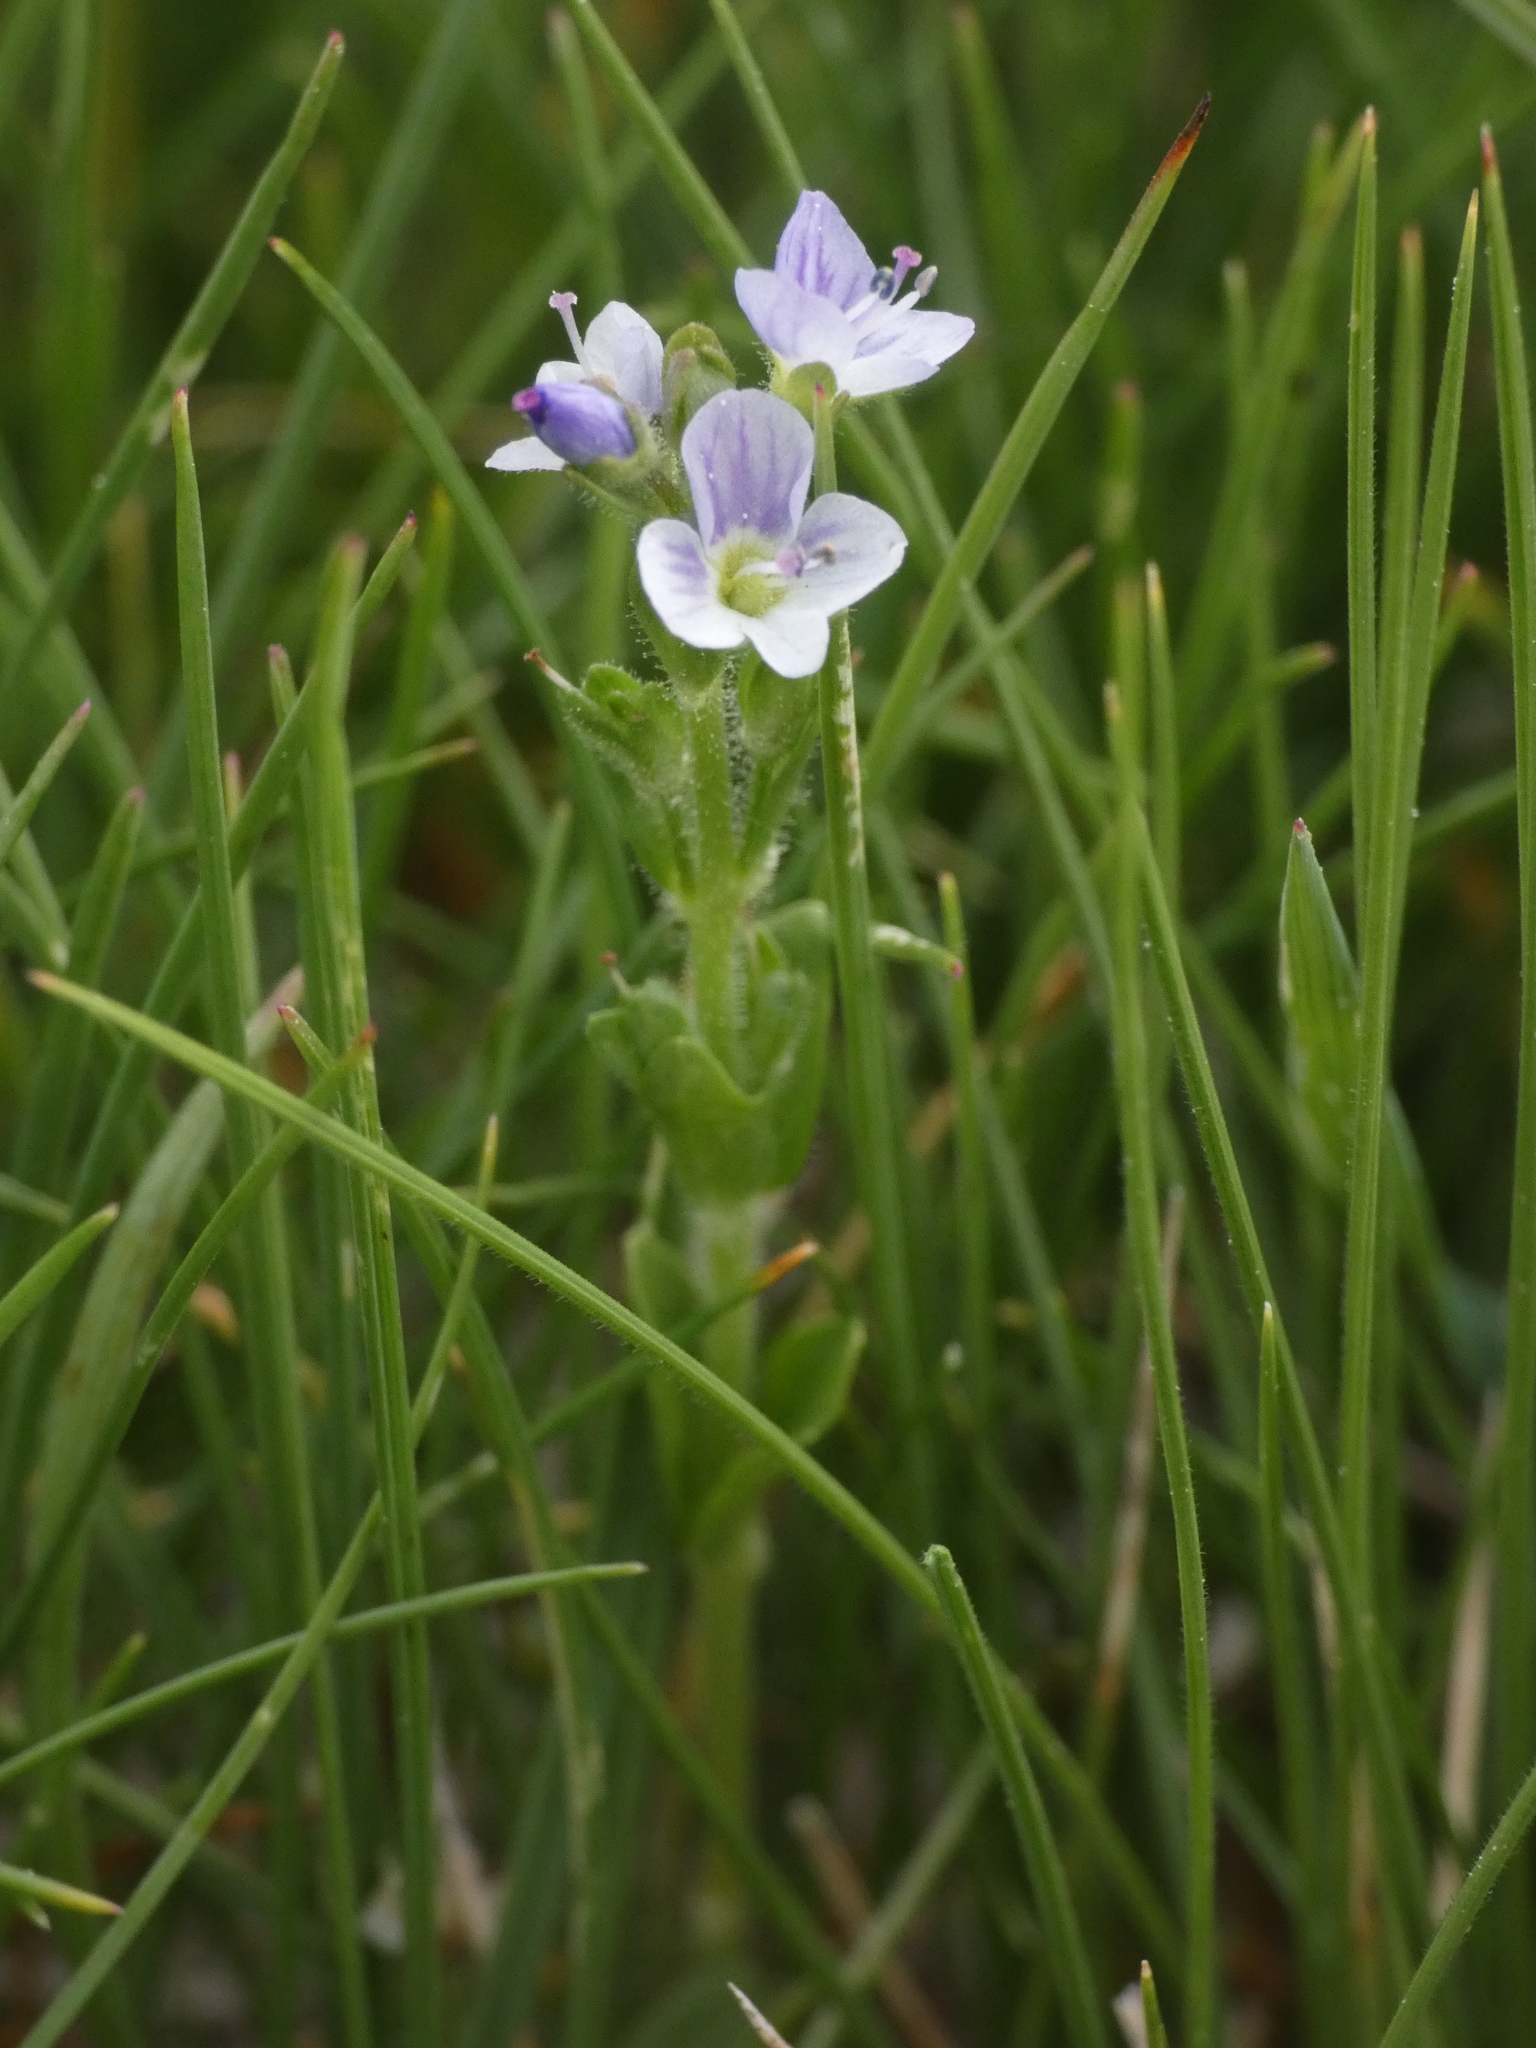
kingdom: Plantae
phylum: Tracheophyta
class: Magnoliopsida
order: Lamiales
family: Plantaginaceae
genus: Veronica
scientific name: Veronica serpyllifolia
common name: Thyme-leaved speedwell
